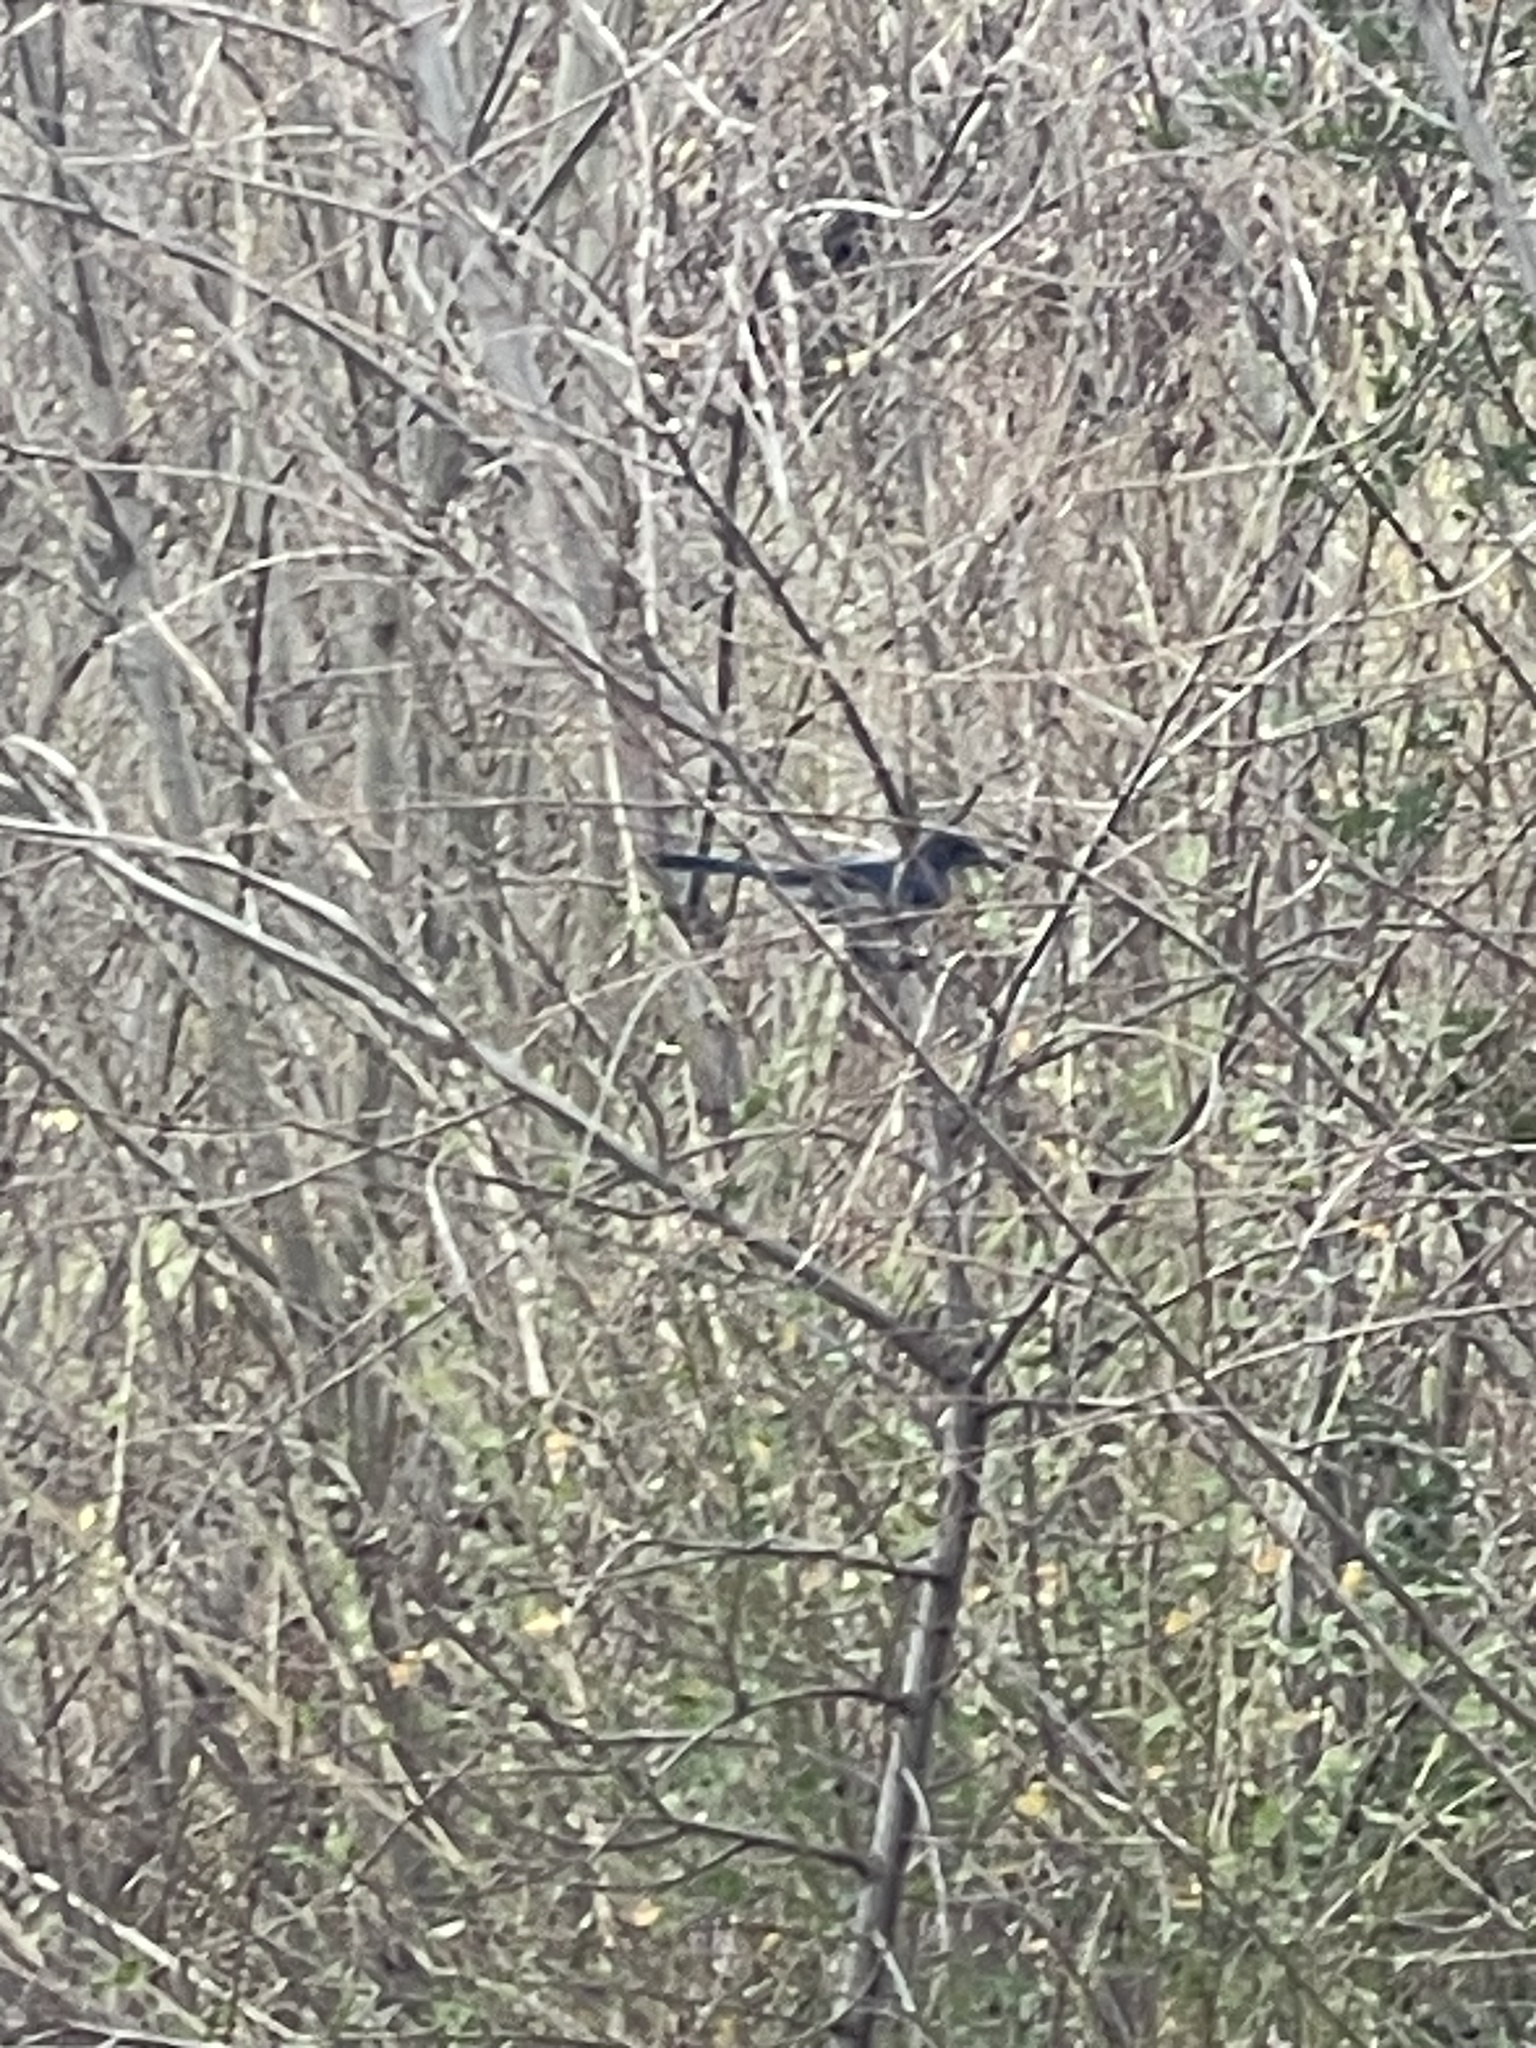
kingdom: Animalia
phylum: Chordata
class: Aves
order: Passeriformes
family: Corvidae
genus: Aphelocoma
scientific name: Aphelocoma californica
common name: California scrub-jay
